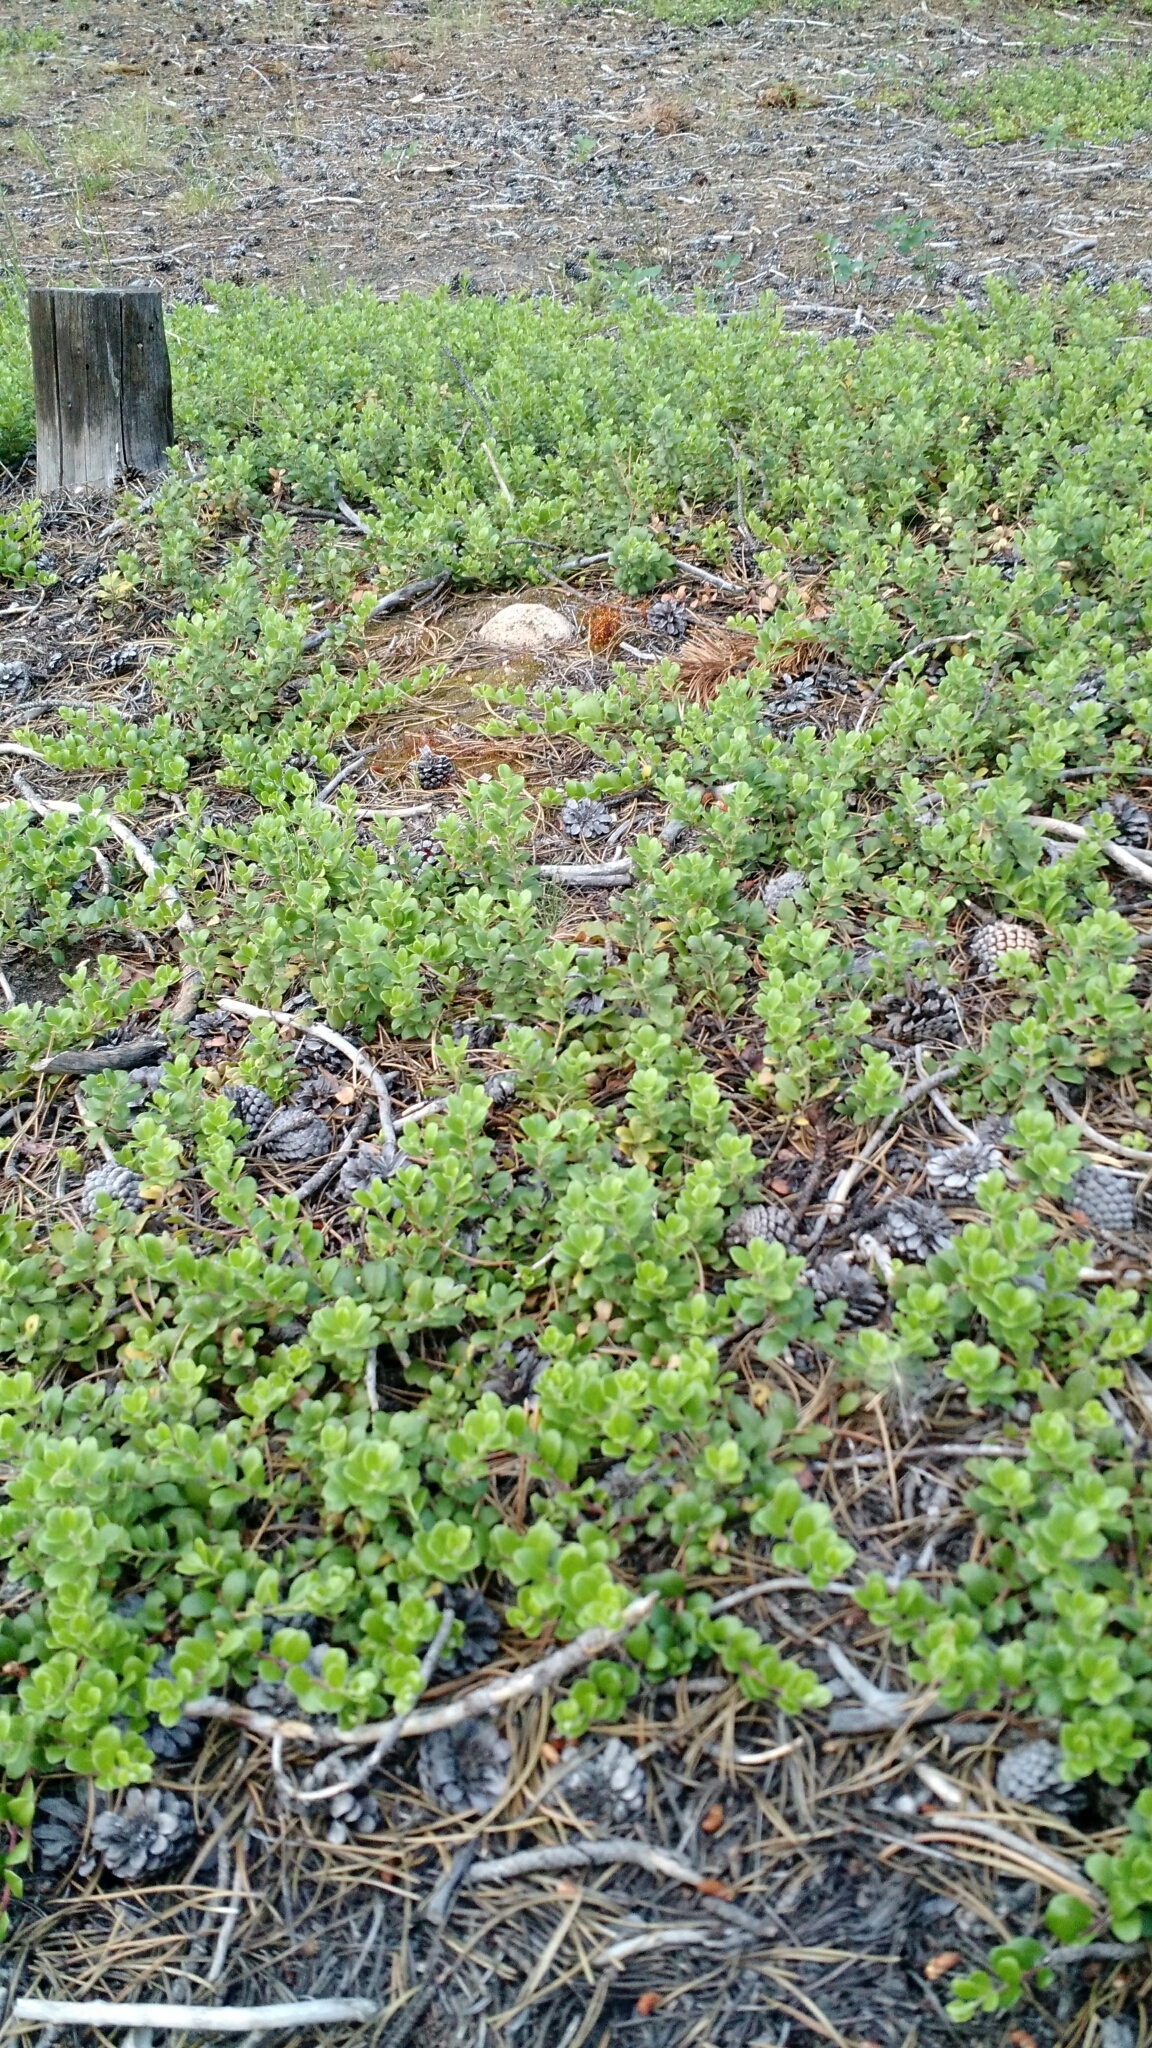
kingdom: Plantae
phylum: Tracheophyta
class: Magnoliopsida
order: Ericales
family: Ericaceae
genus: Arctostaphylos
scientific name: Arctostaphylos uva-ursi
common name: Bearberry
